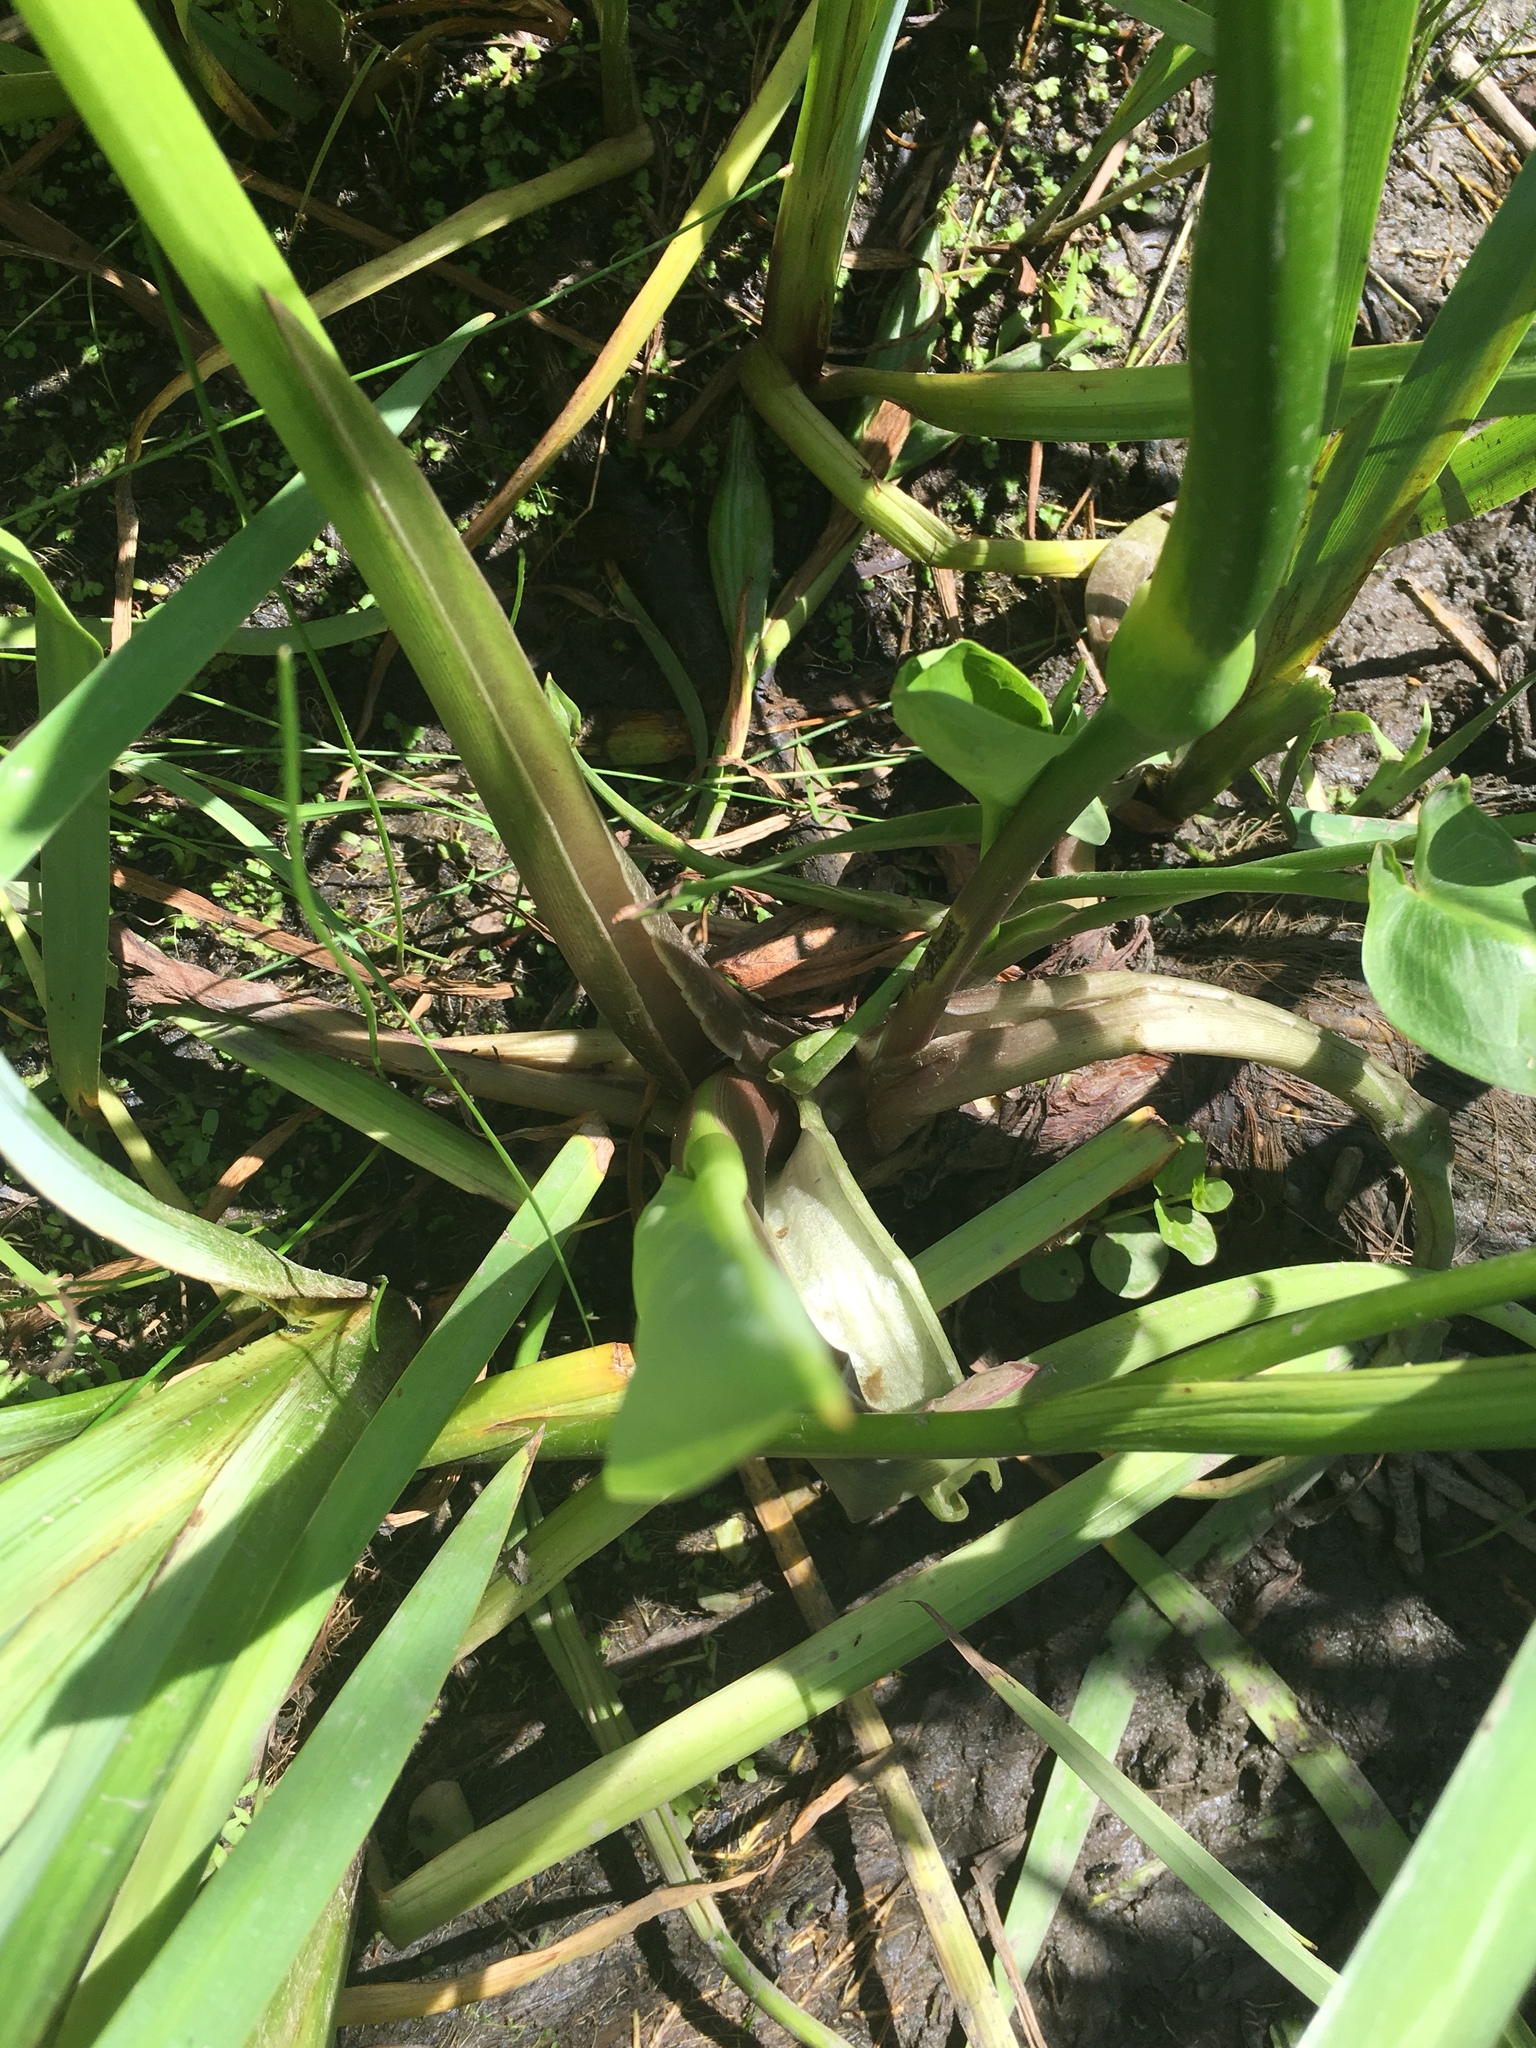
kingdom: Plantae
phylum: Tracheophyta
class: Liliopsida
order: Alismatales
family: Araceae
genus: Peltandra
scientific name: Peltandra virginica
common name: Arrow arum
